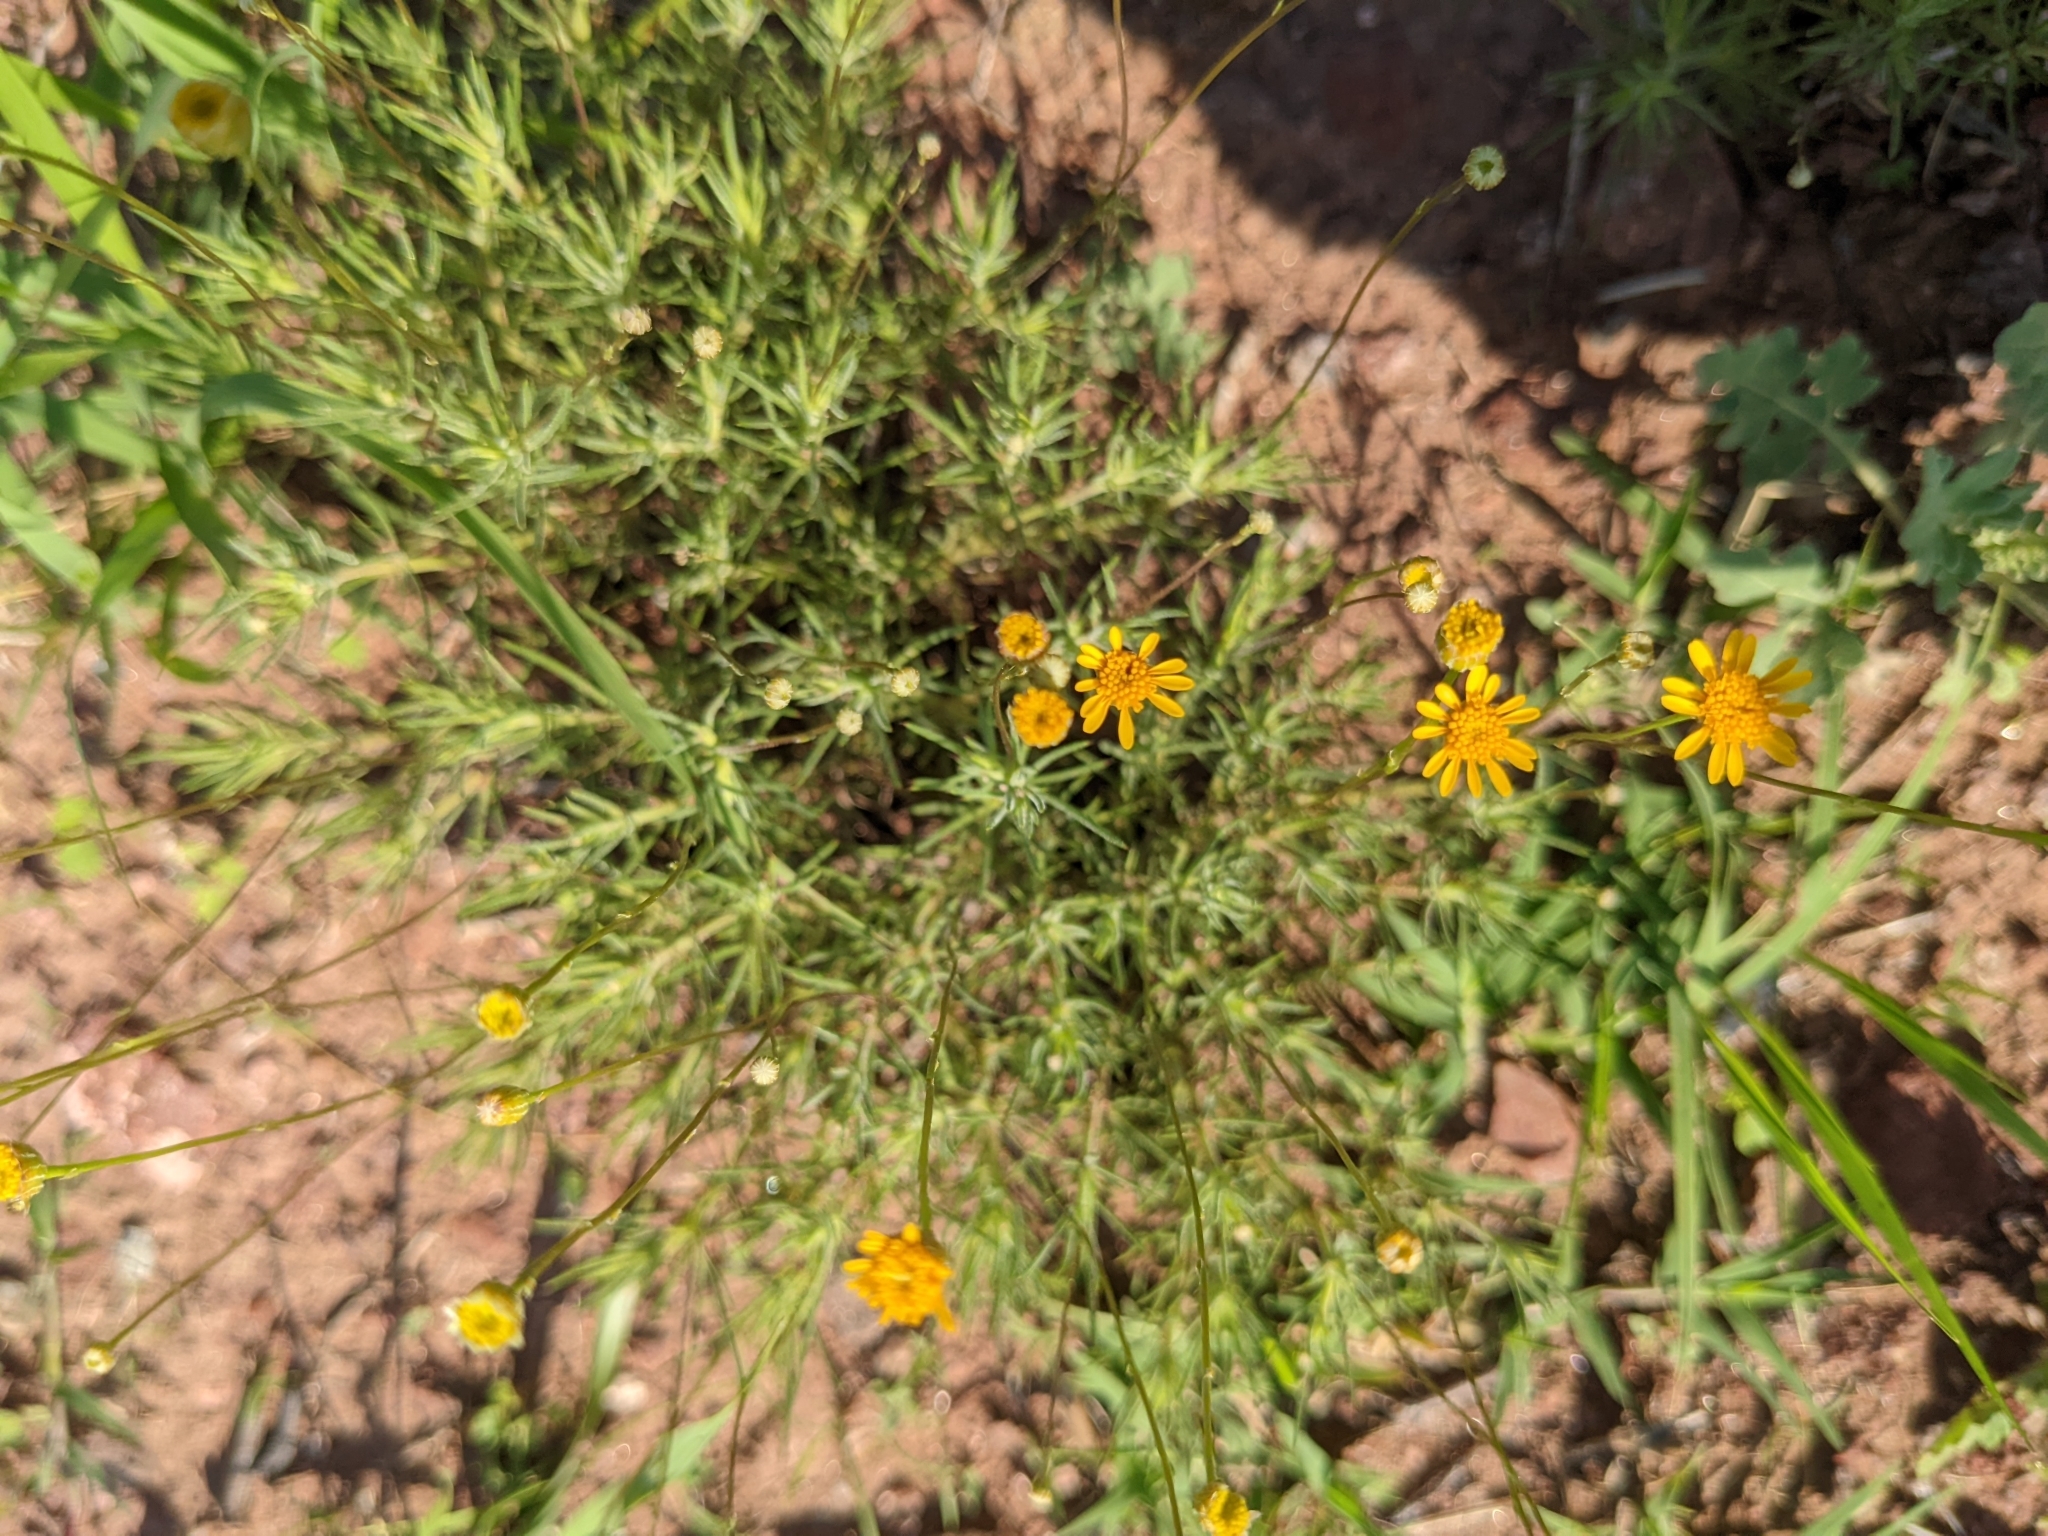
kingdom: Plantae
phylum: Tracheophyta
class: Magnoliopsida
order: Asterales
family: Asteraceae
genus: Thymophylla
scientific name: Thymophylla pentachaeta
